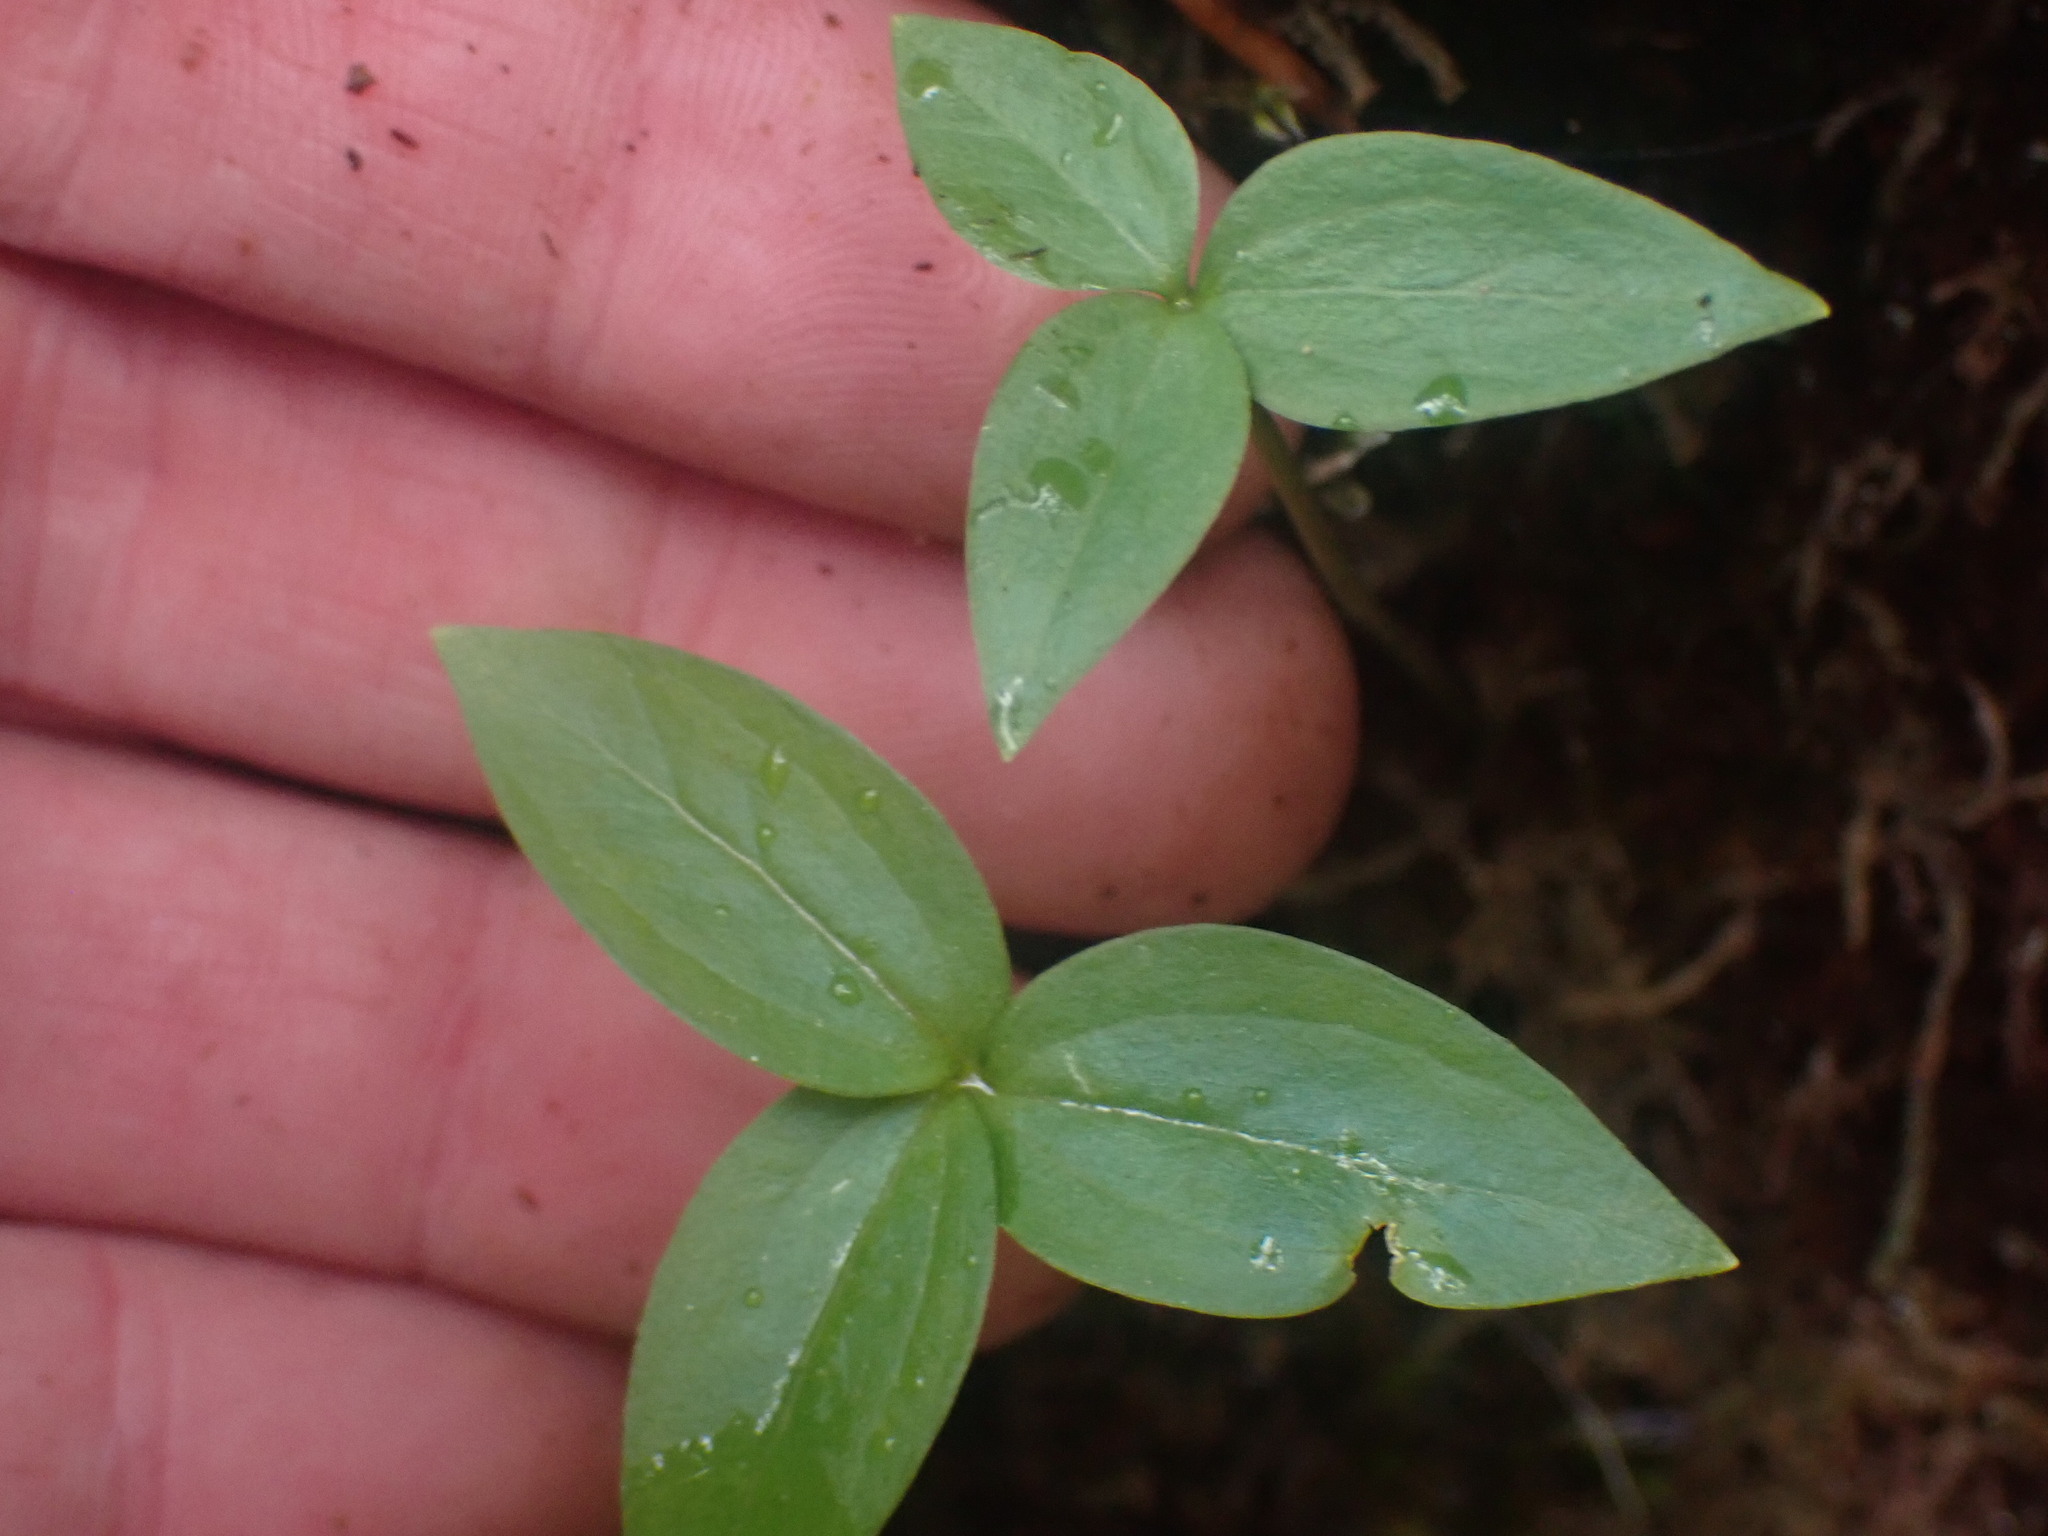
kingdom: Plantae
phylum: Tracheophyta
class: Liliopsida
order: Liliales
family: Melanthiaceae
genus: Trillium
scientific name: Trillium hibbersonii
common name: Hibberson's trillium
